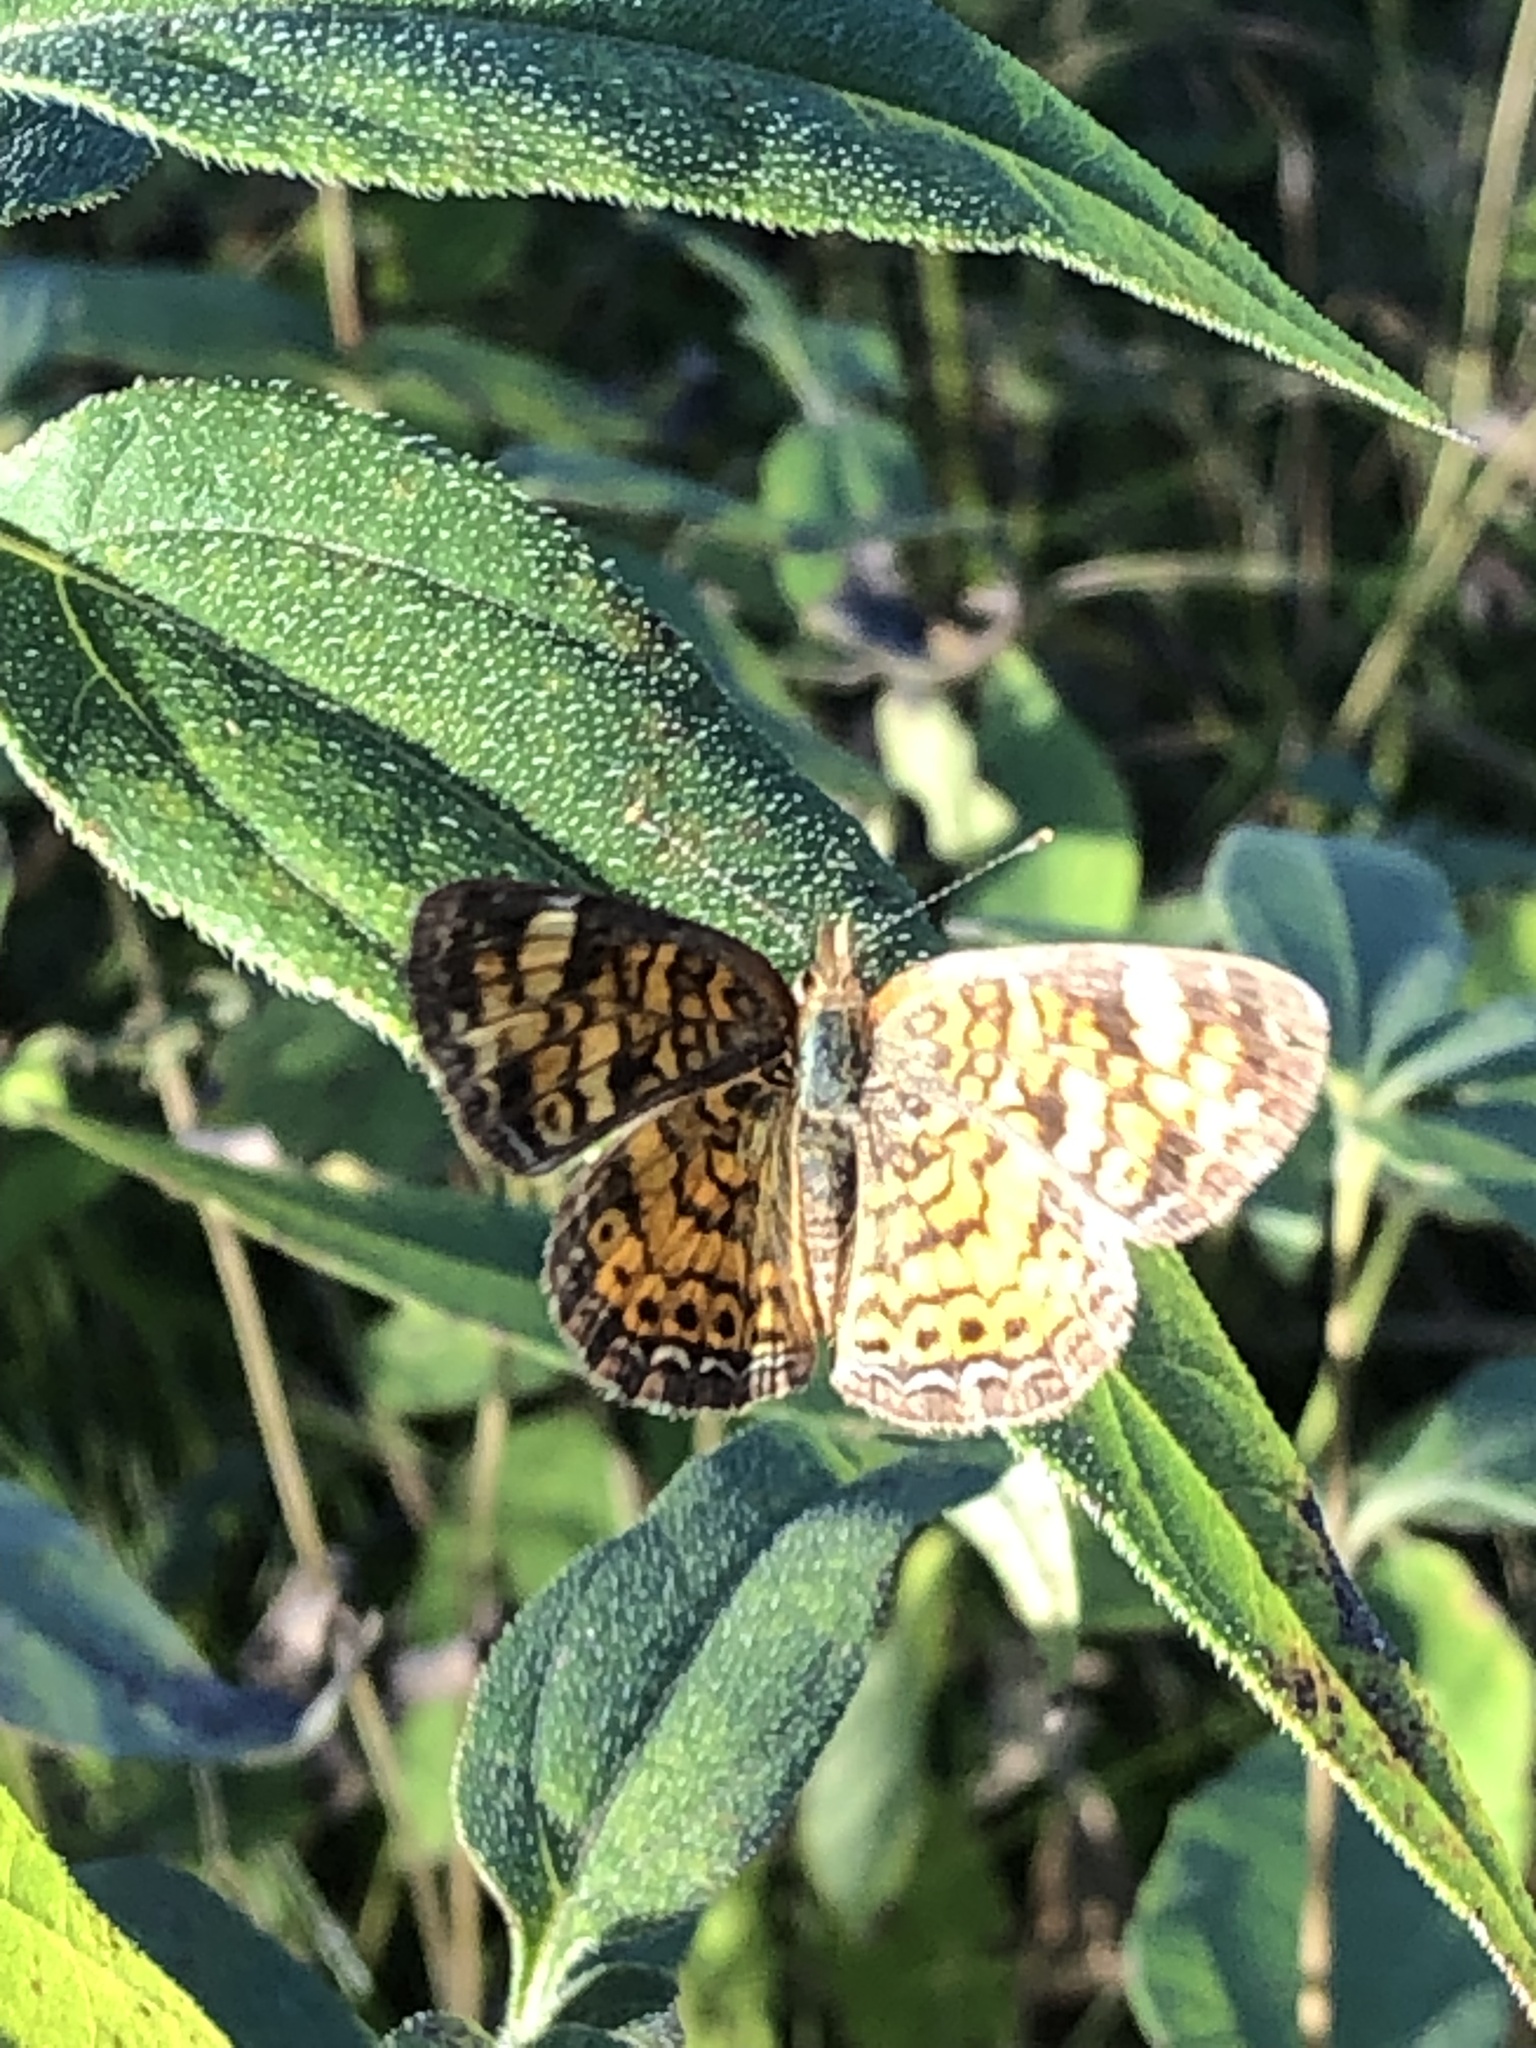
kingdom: Animalia
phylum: Arthropoda
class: Insecta
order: Lepidoptera
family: Nymphalidae
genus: Phyciodes
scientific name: Phyciodes tharos
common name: Pearl crescent
